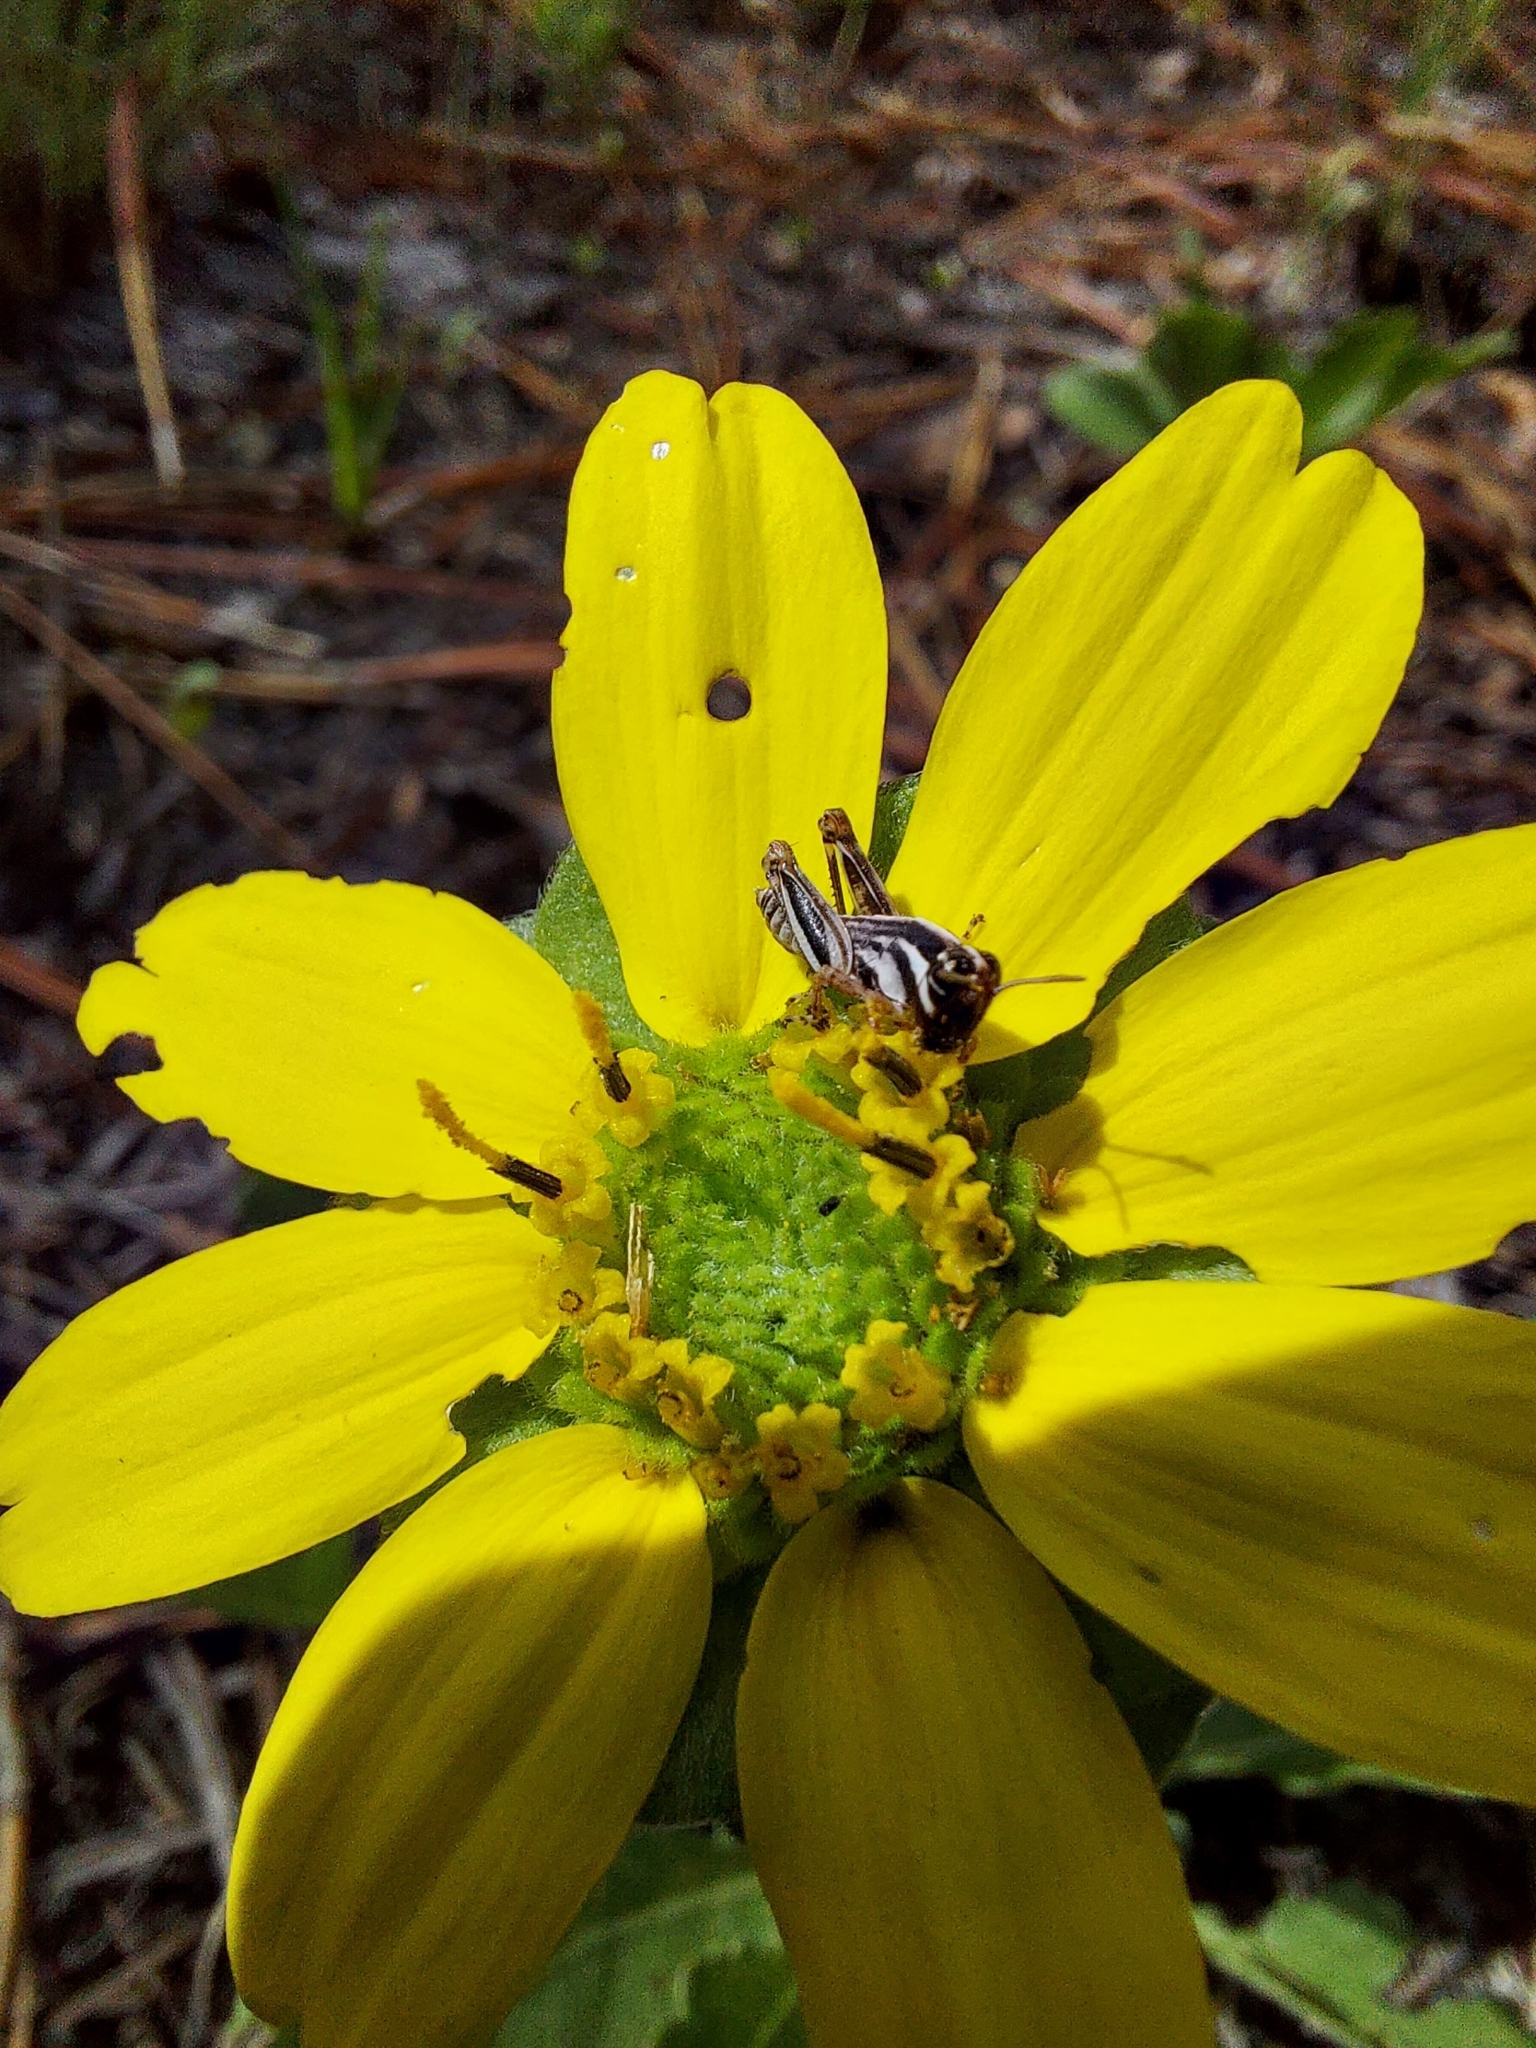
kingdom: Animalia
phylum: Arthropoda
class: Insecta
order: Orthoptera
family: Acrididae
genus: Melanoplus
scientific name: Melanoplus keeleri
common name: Keeler grasshopper
